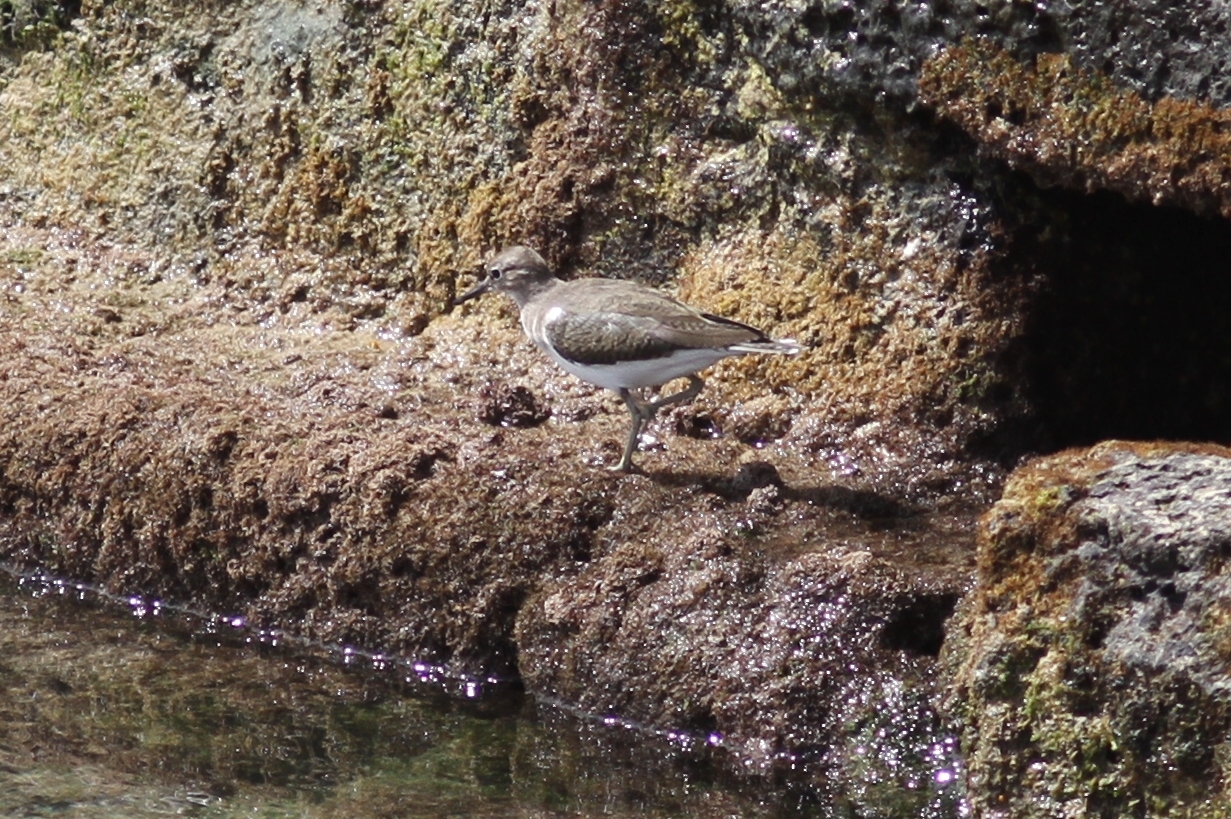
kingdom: Animalia
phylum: Chordata
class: Aves
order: Charadriiformes
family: Scolopacidae
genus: Actitis
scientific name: Actitis hypoleucos
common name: Common sandpiper
